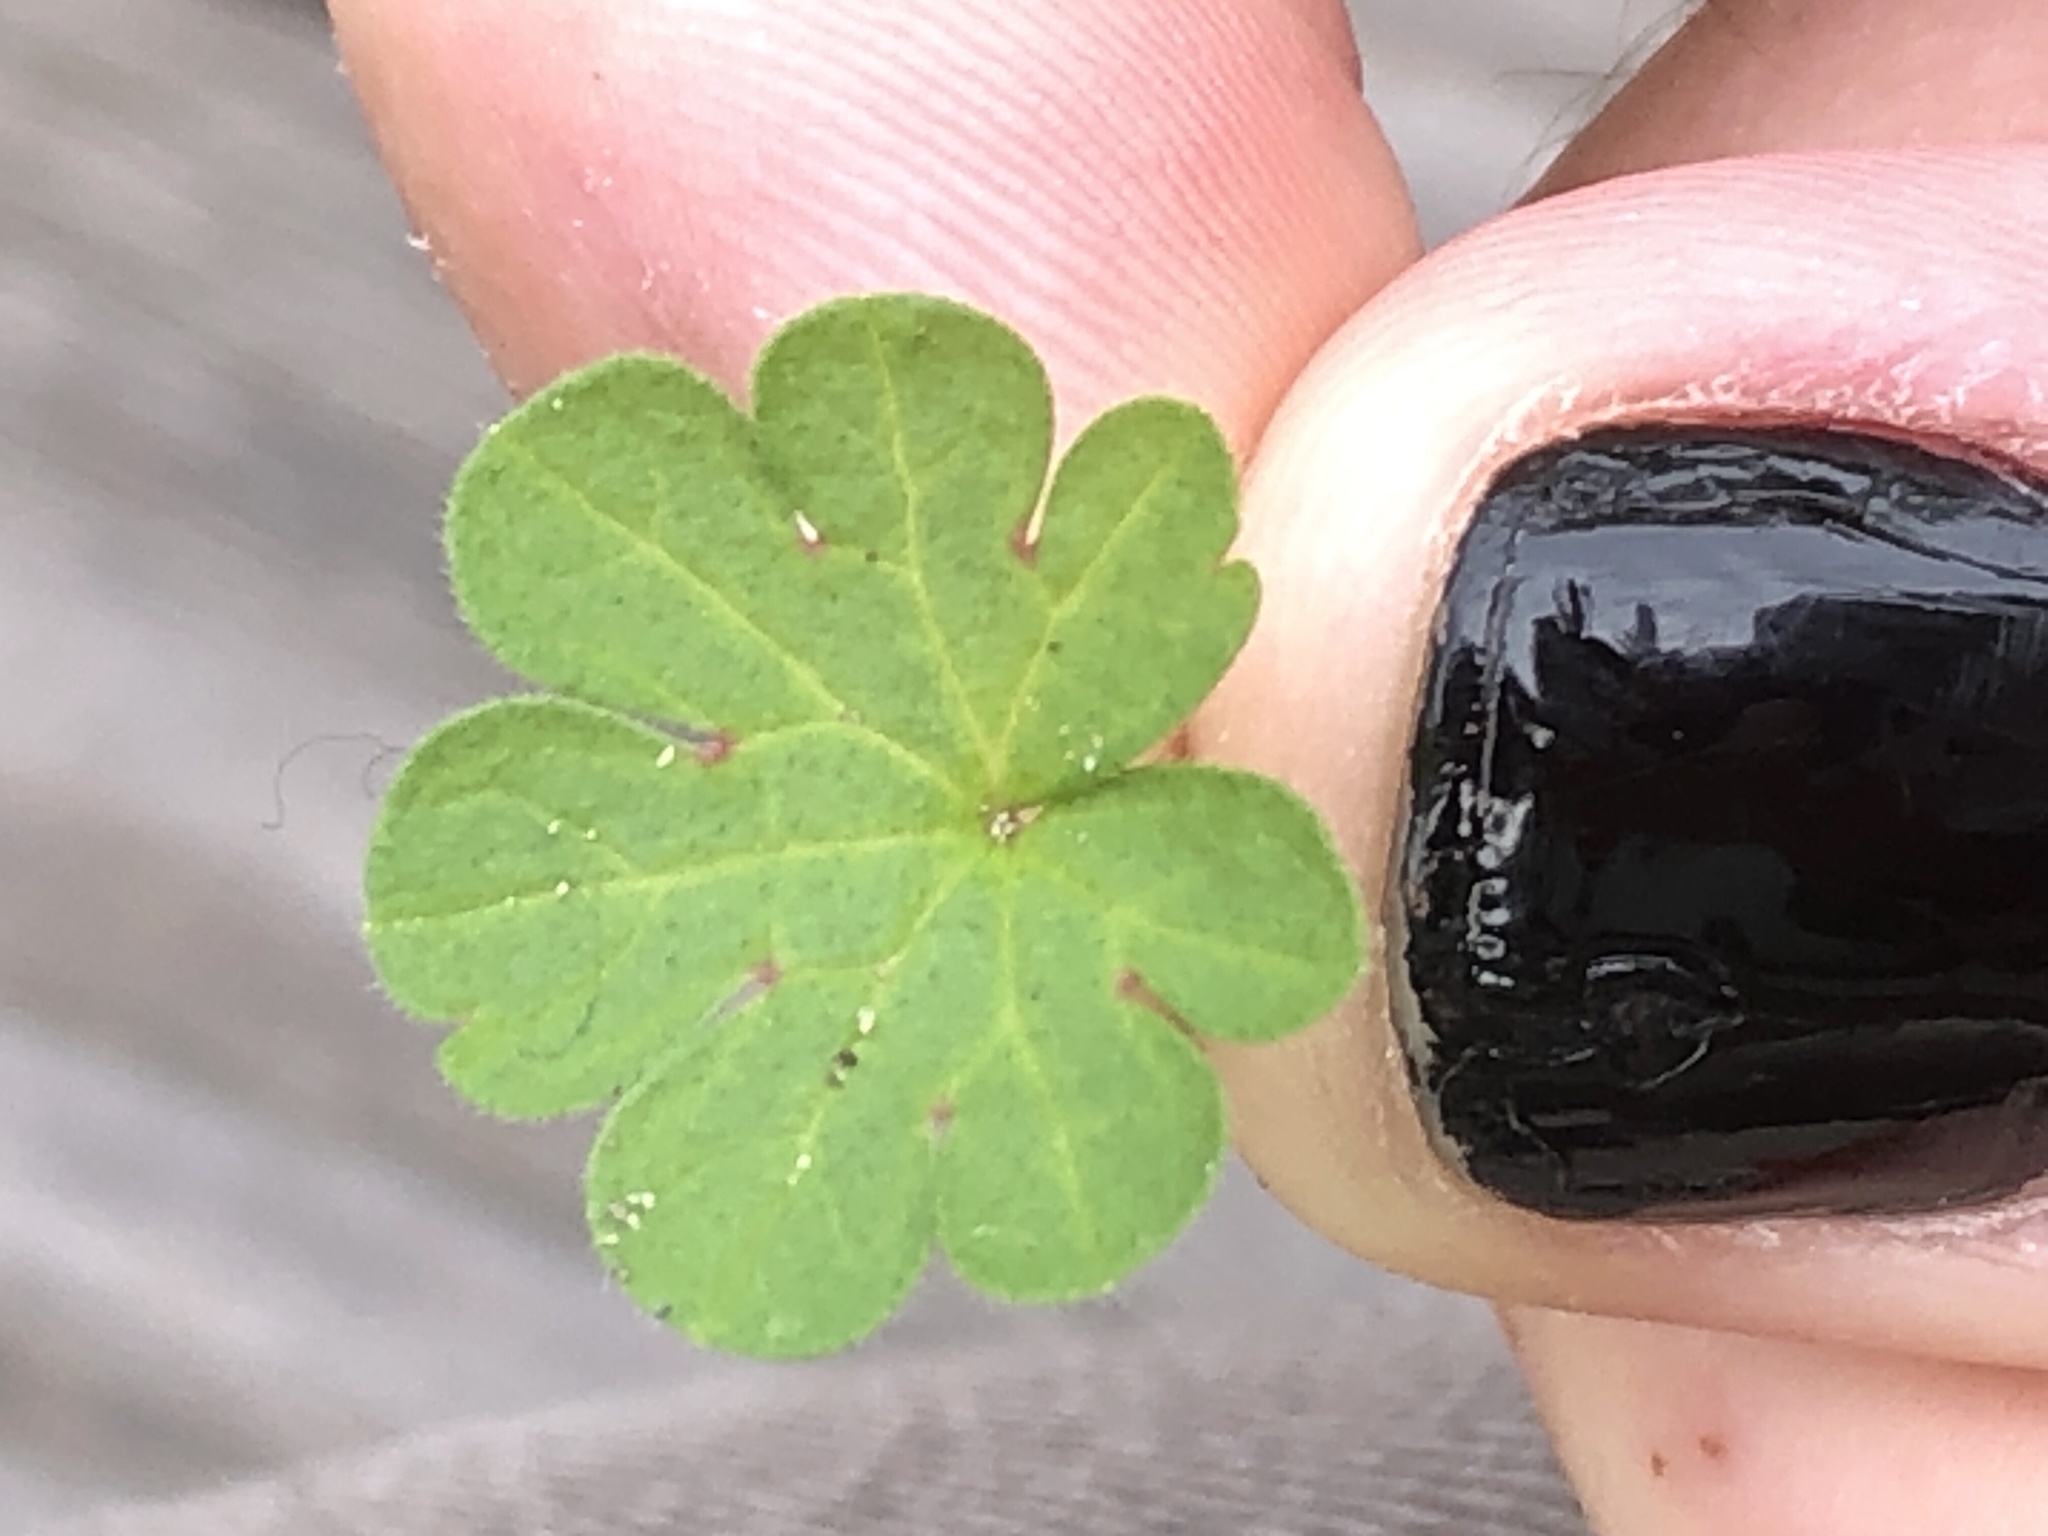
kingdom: Plantae
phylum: Tracheophyta
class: Magnoliopsida
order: Geraniales
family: Geraniaceae
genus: Geranium
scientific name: Geranium
